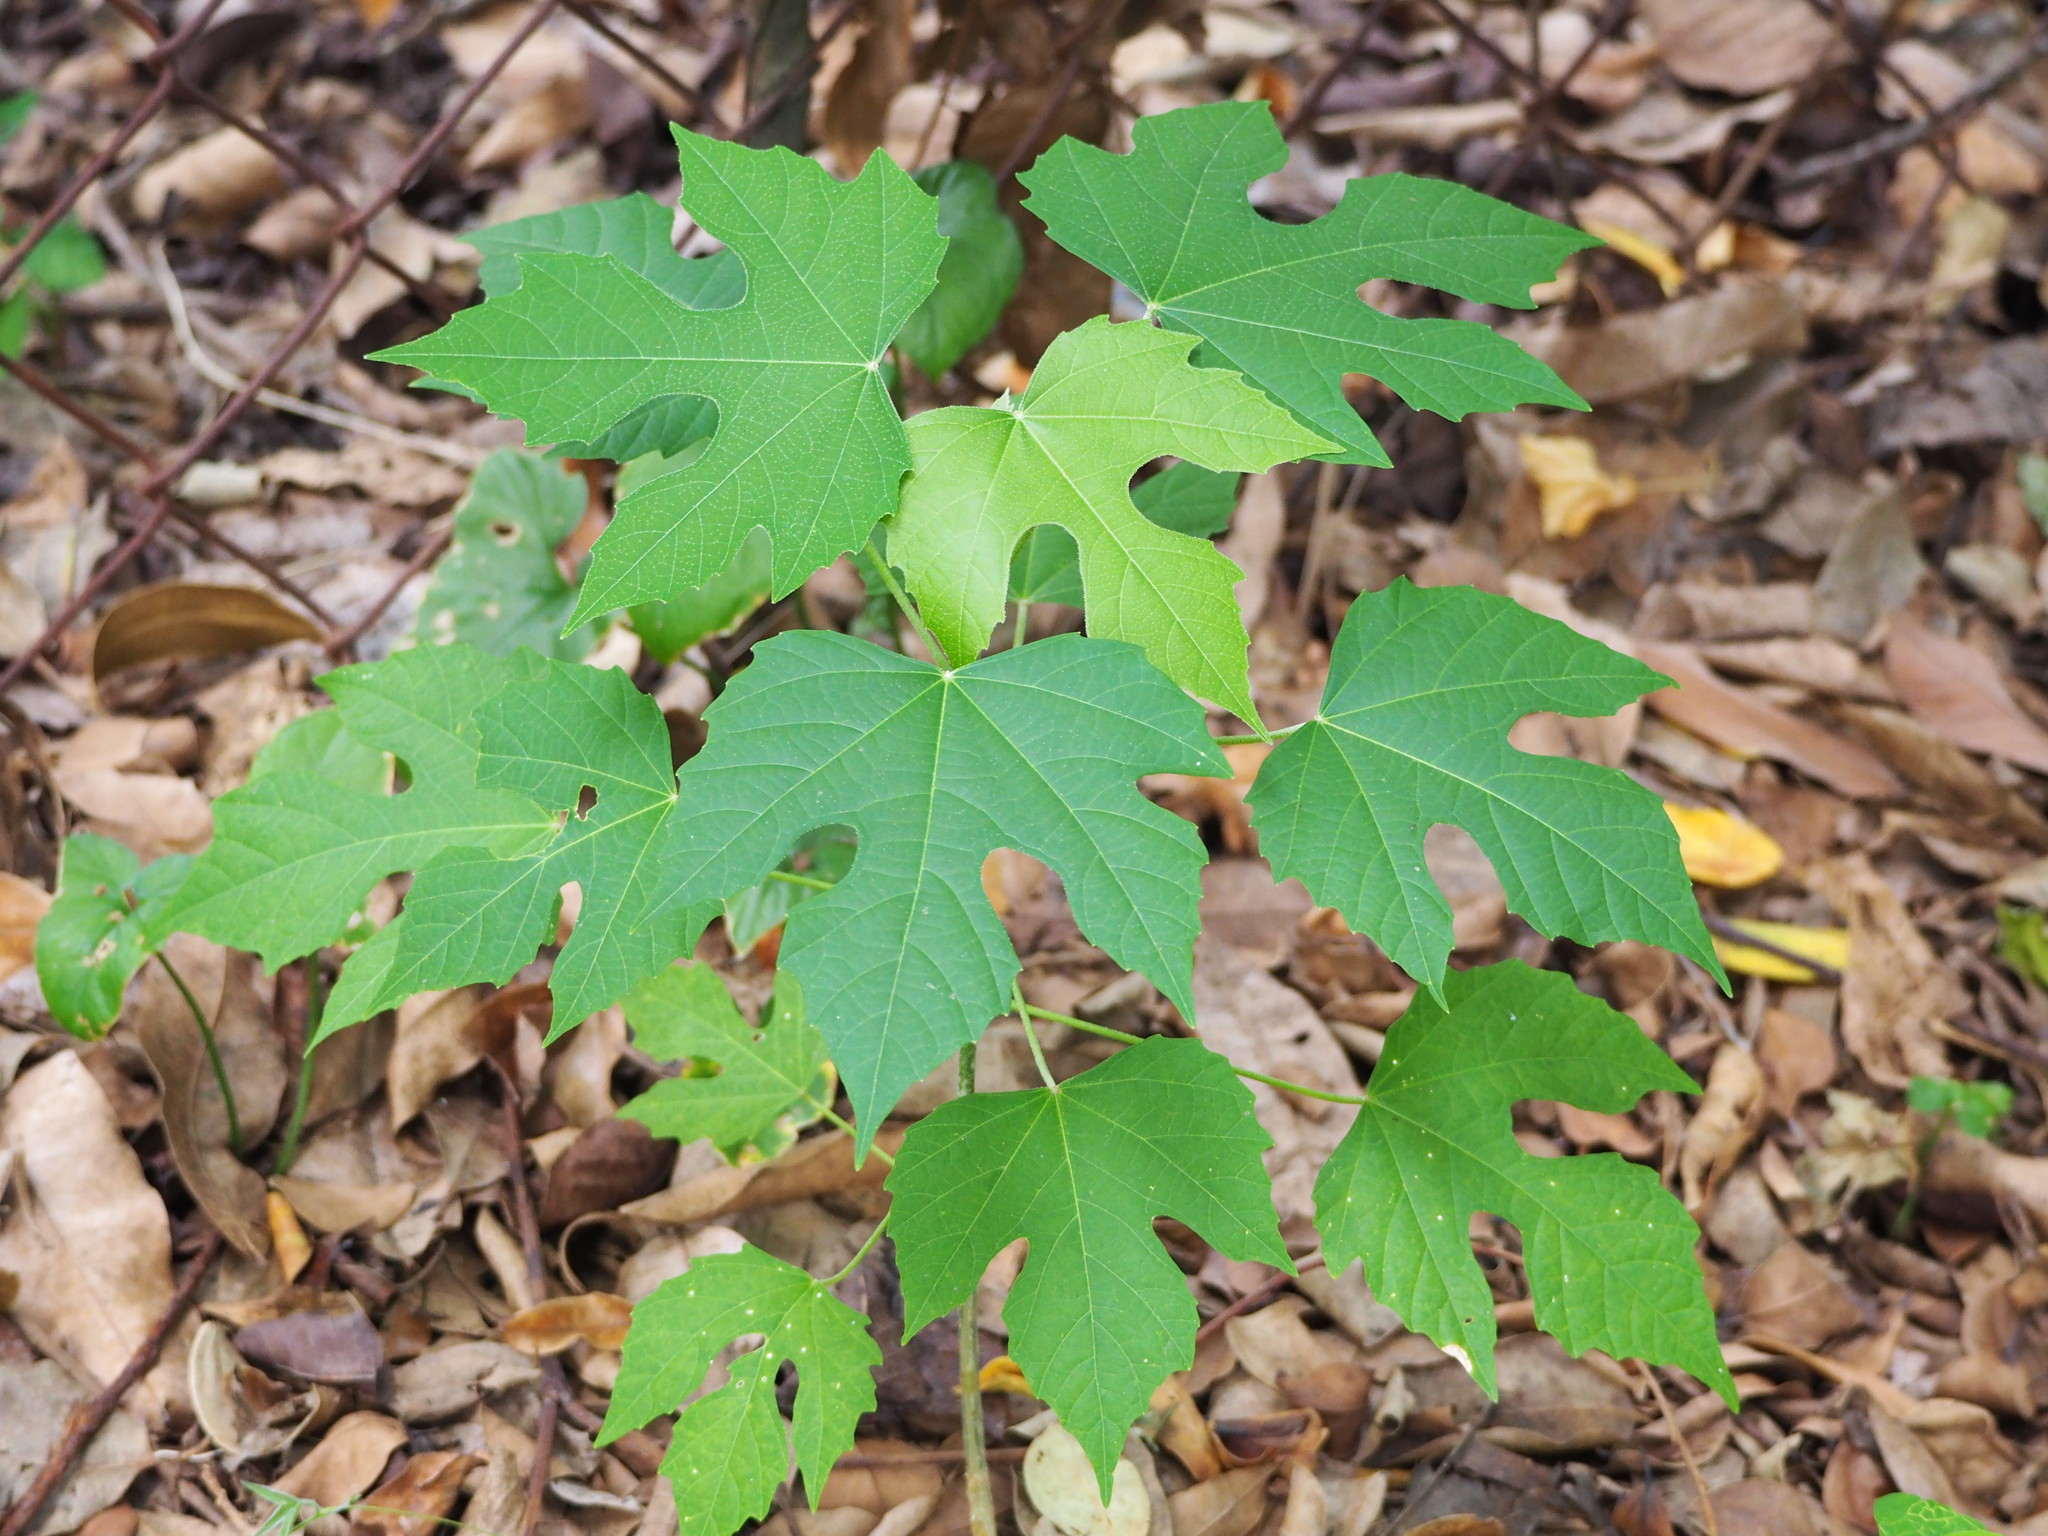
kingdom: Plantae
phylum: Tracheophyta
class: Magnoliopsida
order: Malpighiales
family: Euphorbiaceae
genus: Melanolepis
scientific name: Melanolepis multiglandulosa
